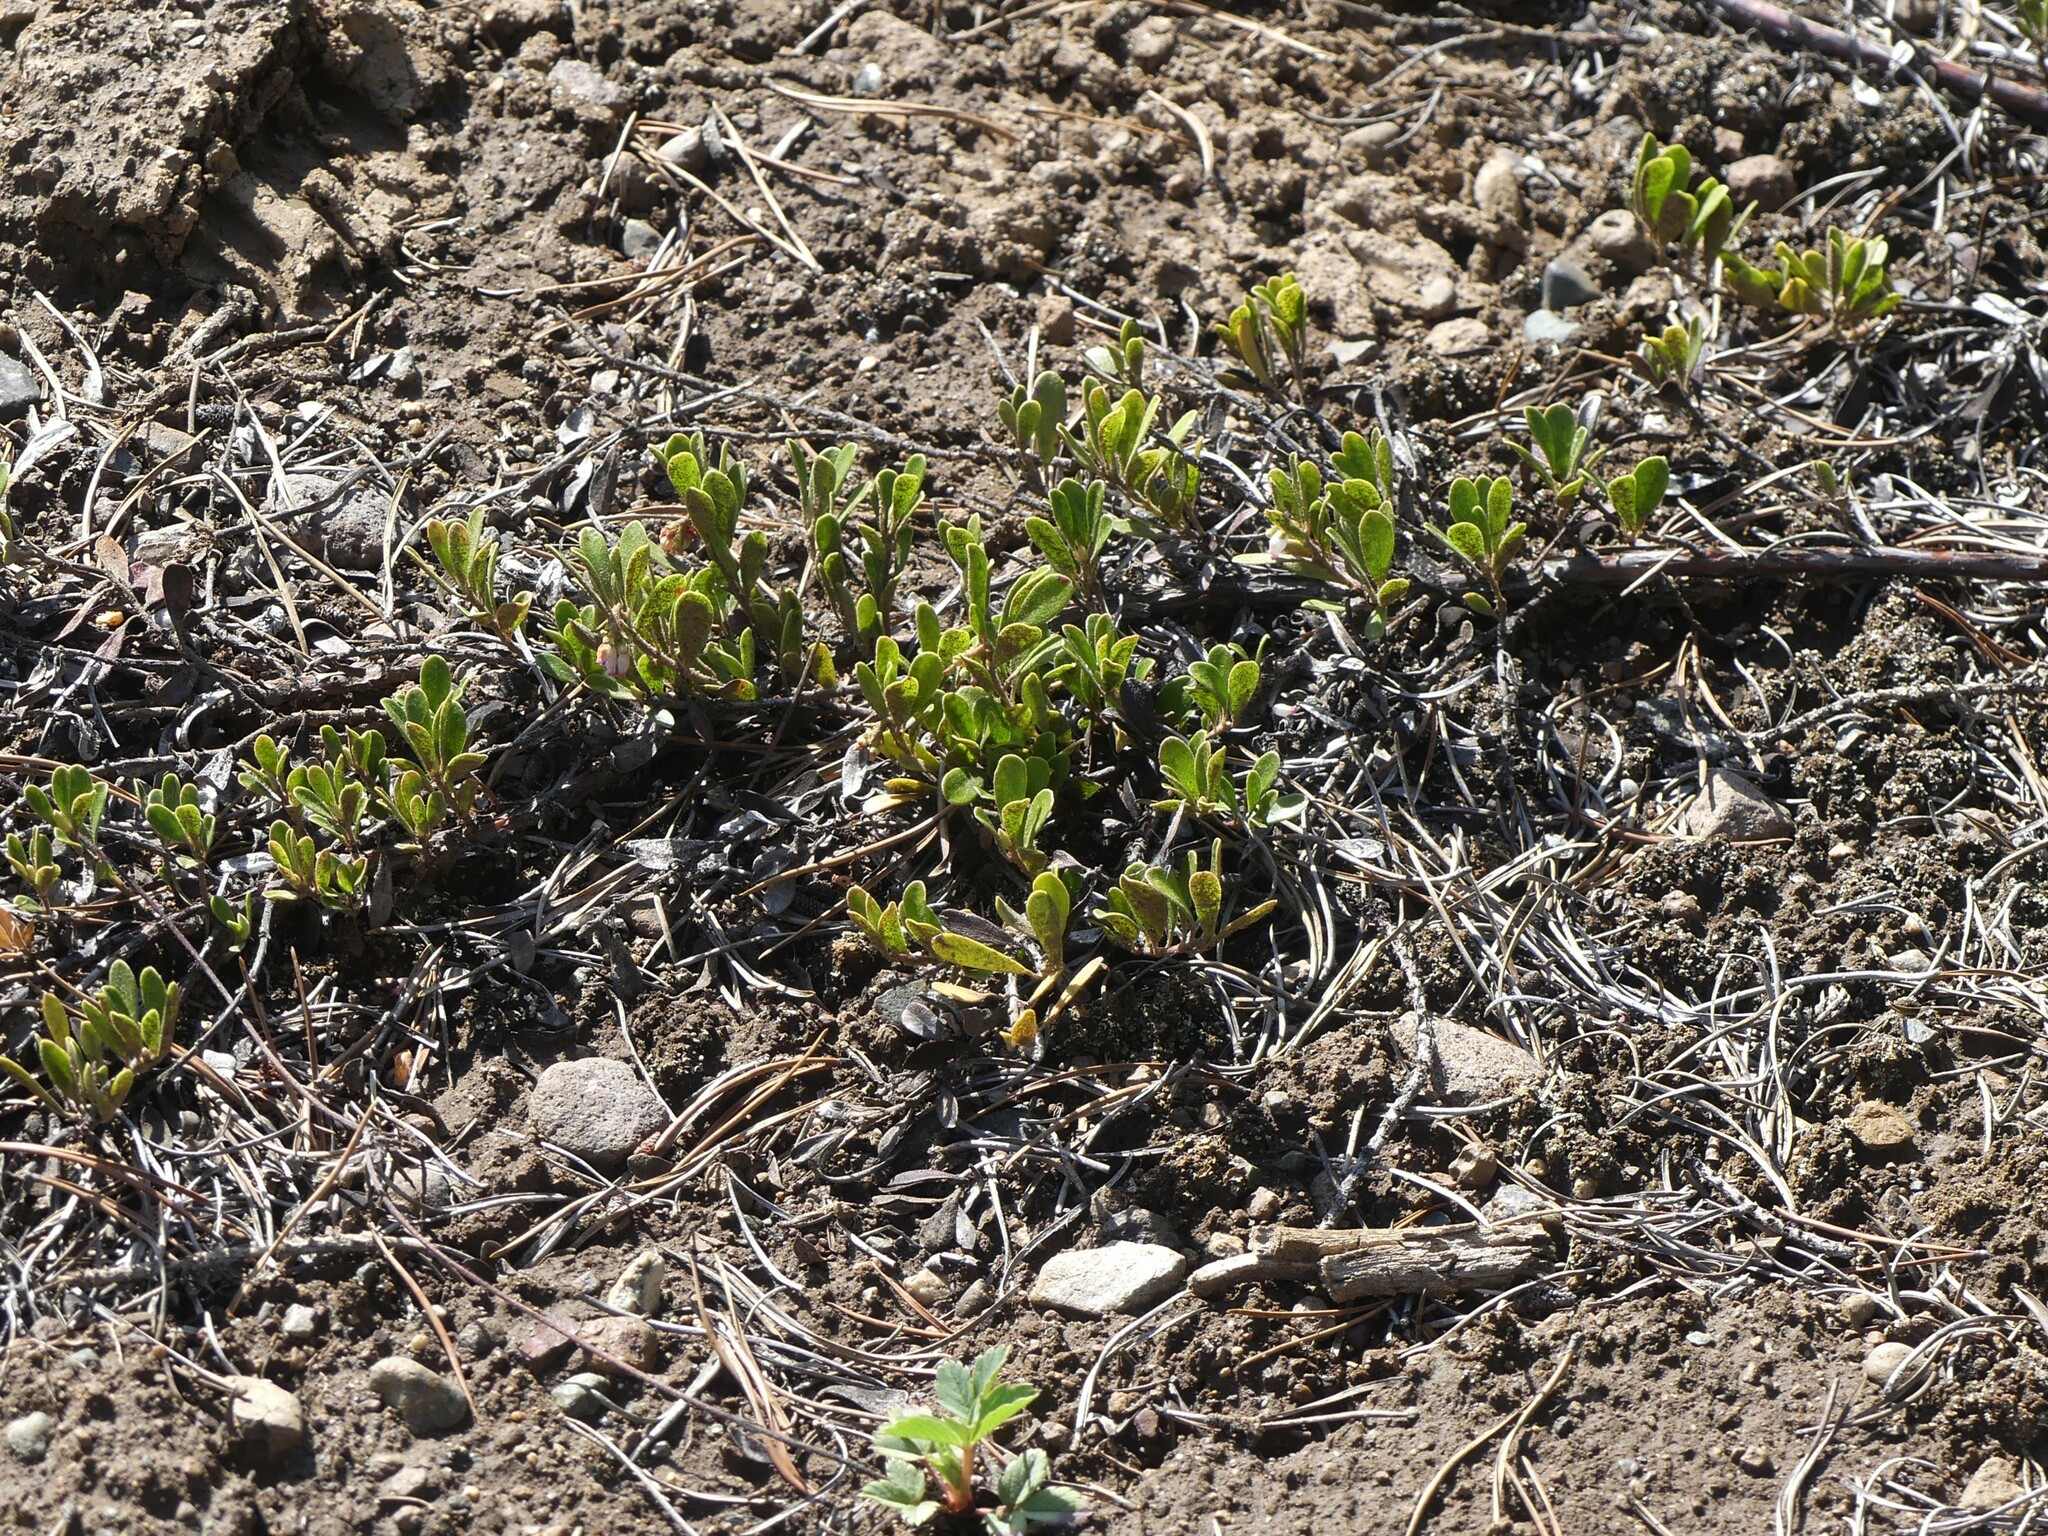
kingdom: Plantae
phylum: Tracheophyta
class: Magnoliopsida
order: Ericales
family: Ericaceae
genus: Arctostaphylos
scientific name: Arctostaphylos uva-ursi
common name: Bearberry
